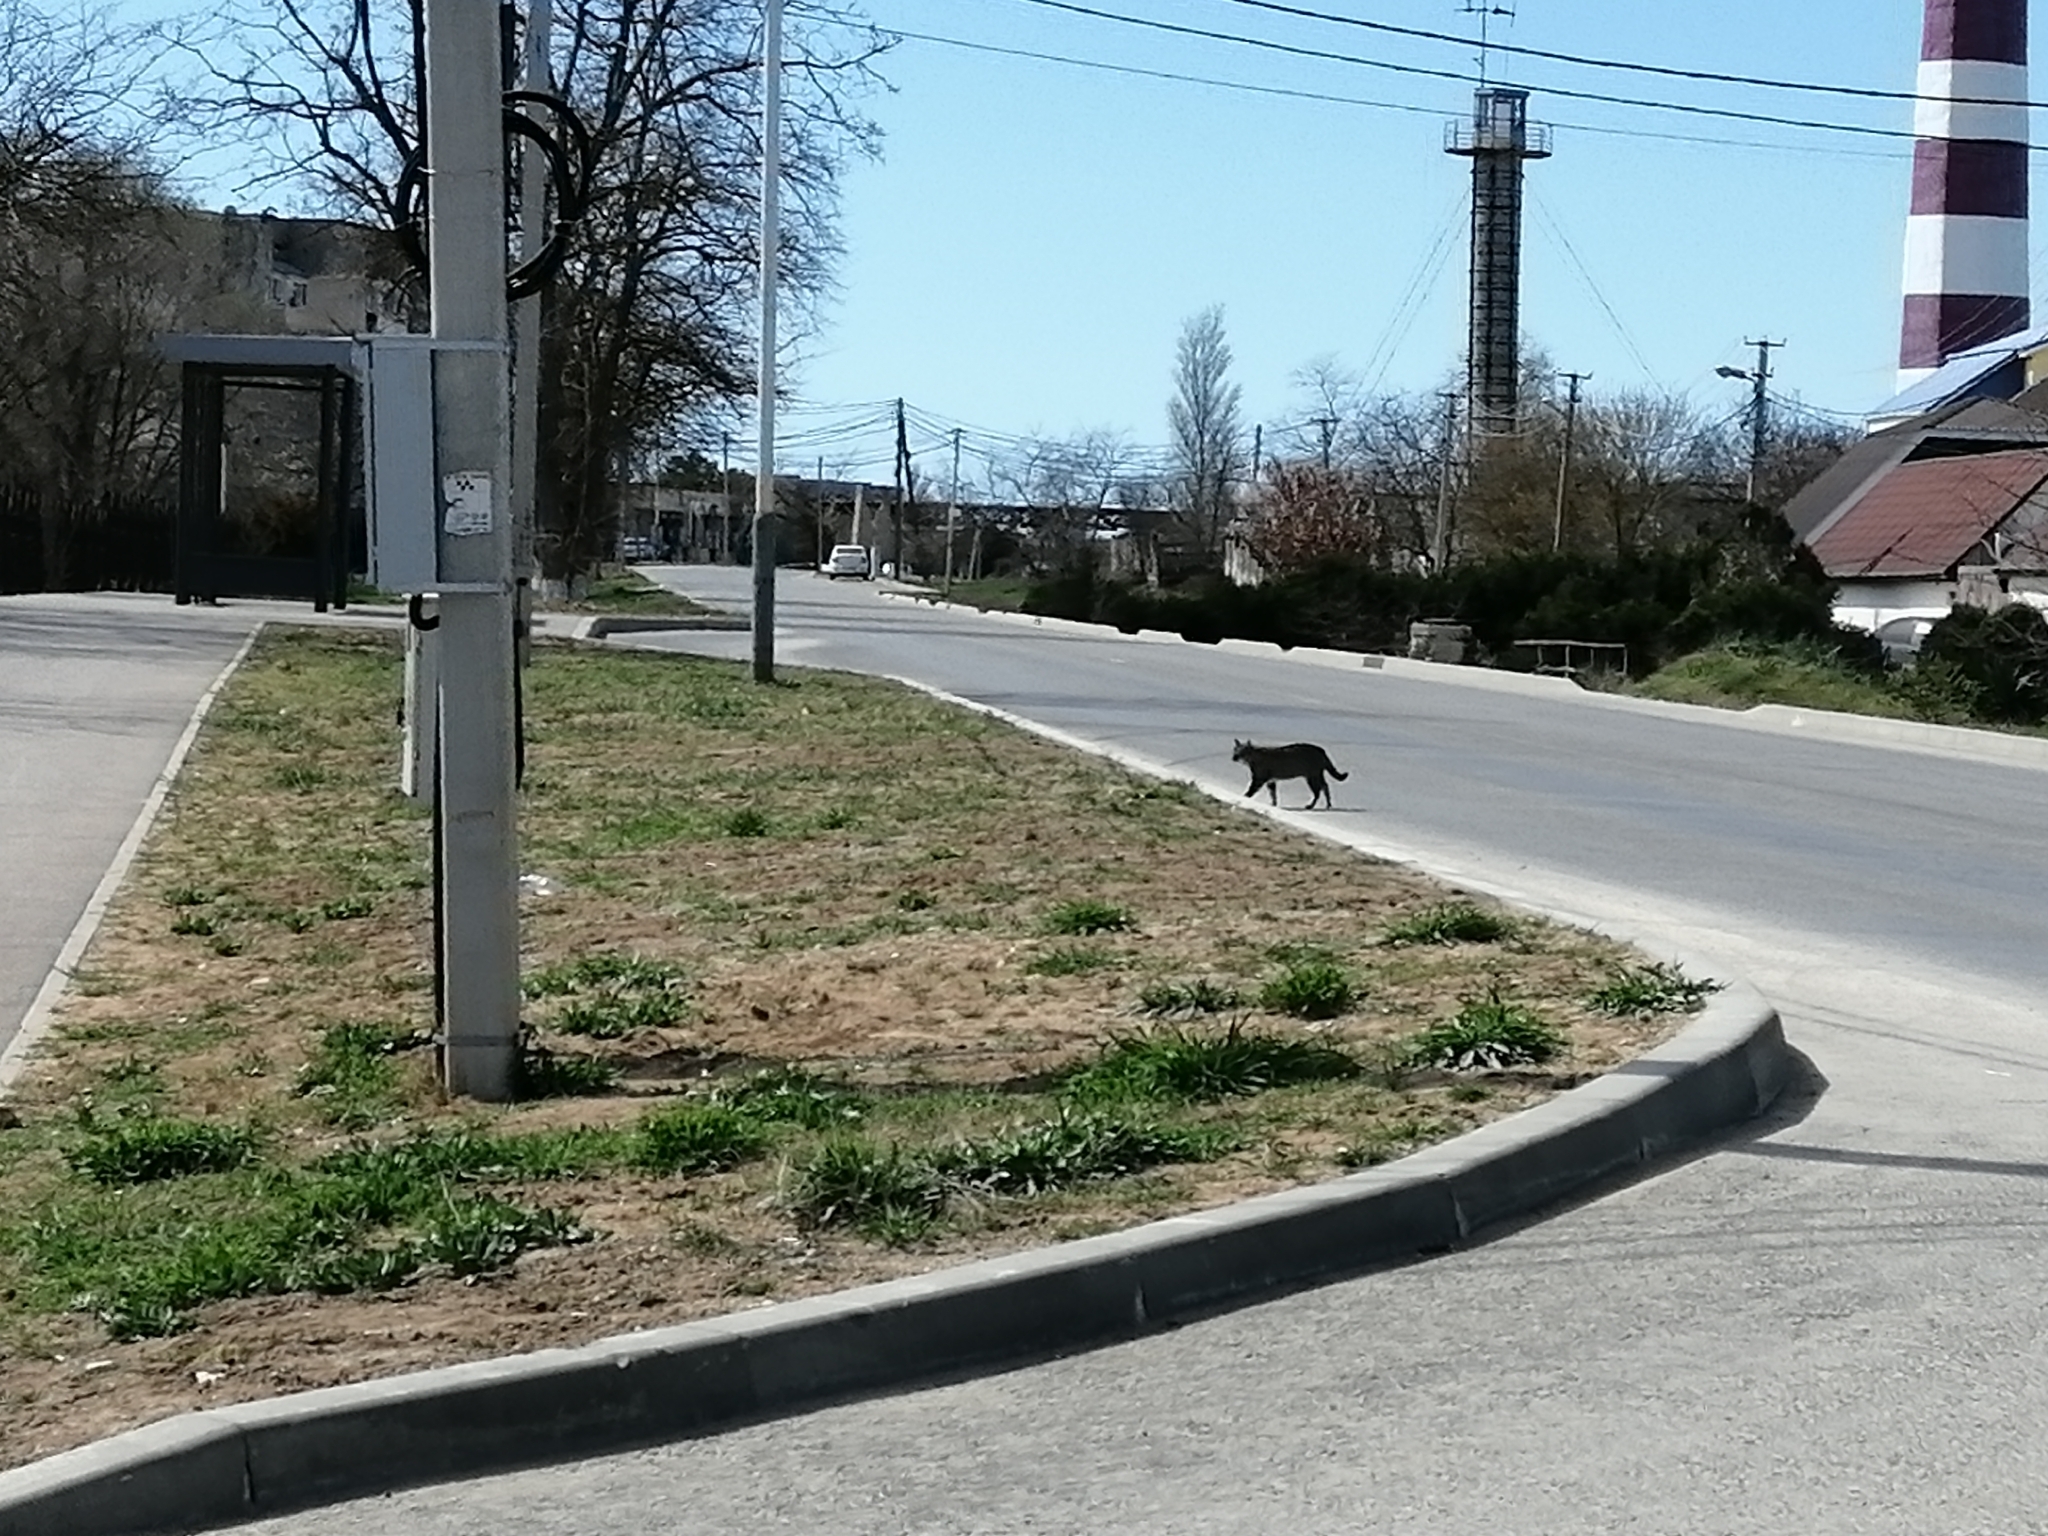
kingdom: Animalia
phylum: Chordata
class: Mammalia
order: Carnivora
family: Felidae
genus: Felis
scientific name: Felis catus
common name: Domestic cat
